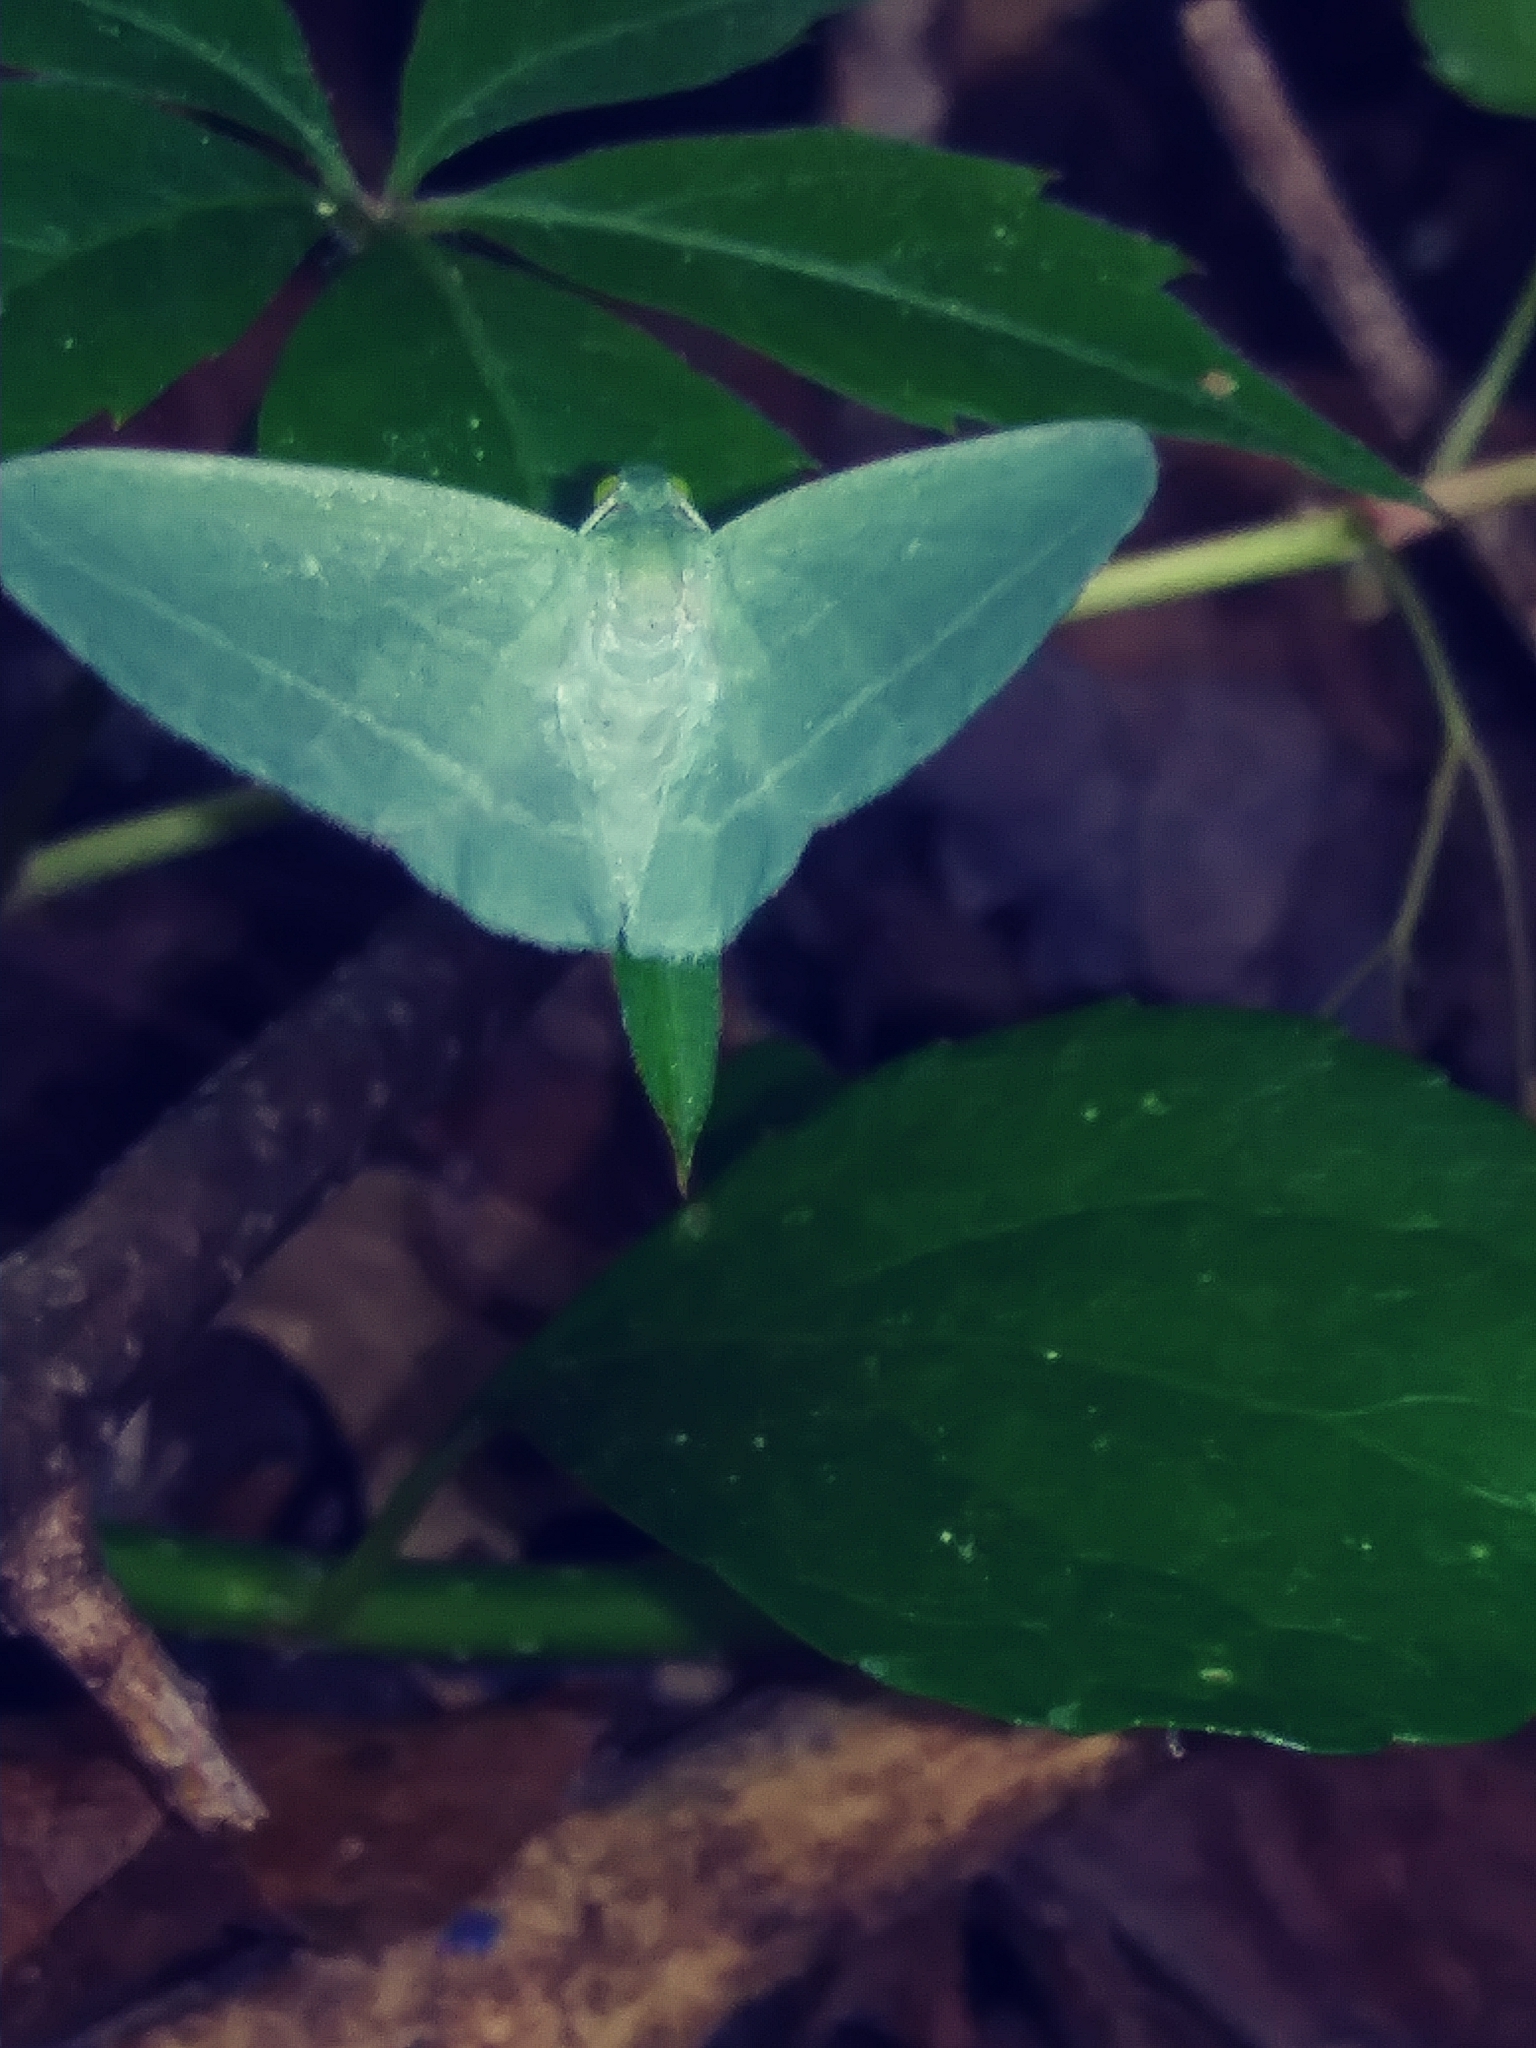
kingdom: Animalia
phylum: Arthropoda
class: Insecta
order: Lepidoptera
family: Geometridae
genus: Dyspteris
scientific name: Dyspteris abortivaria
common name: Bad-wing
